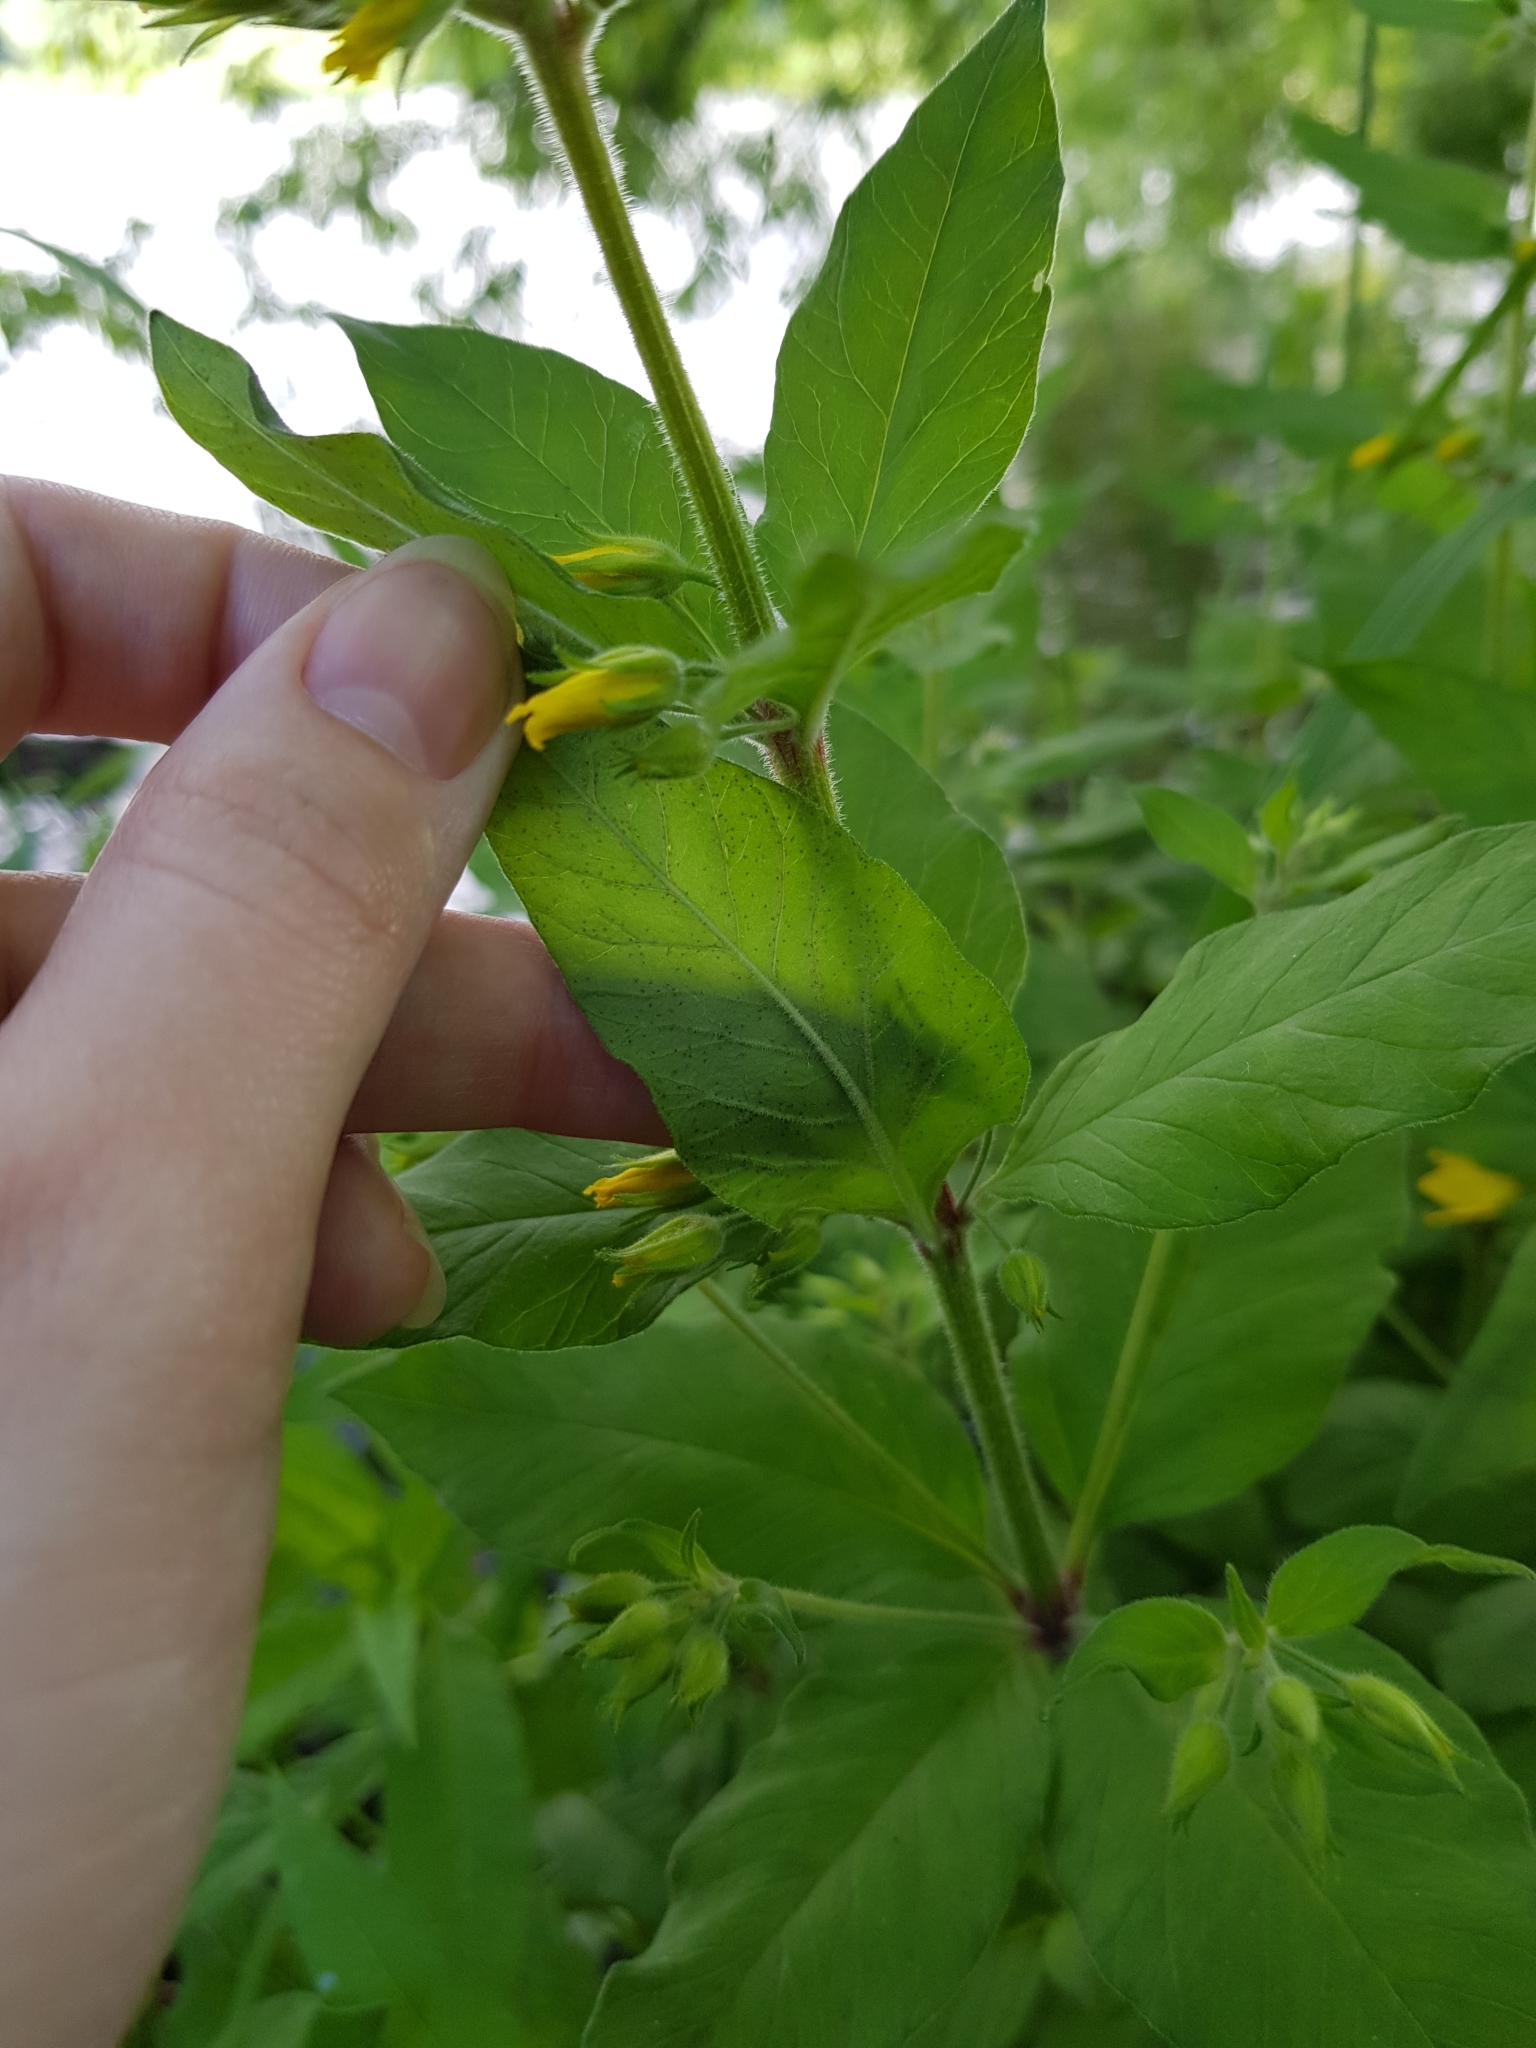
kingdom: Plantae
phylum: Tracheophyta
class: Magnoliopsida
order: Ericales
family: Primulaceae
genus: Lysimachia
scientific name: Lysimachia punctata
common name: Dotted loosestrife
